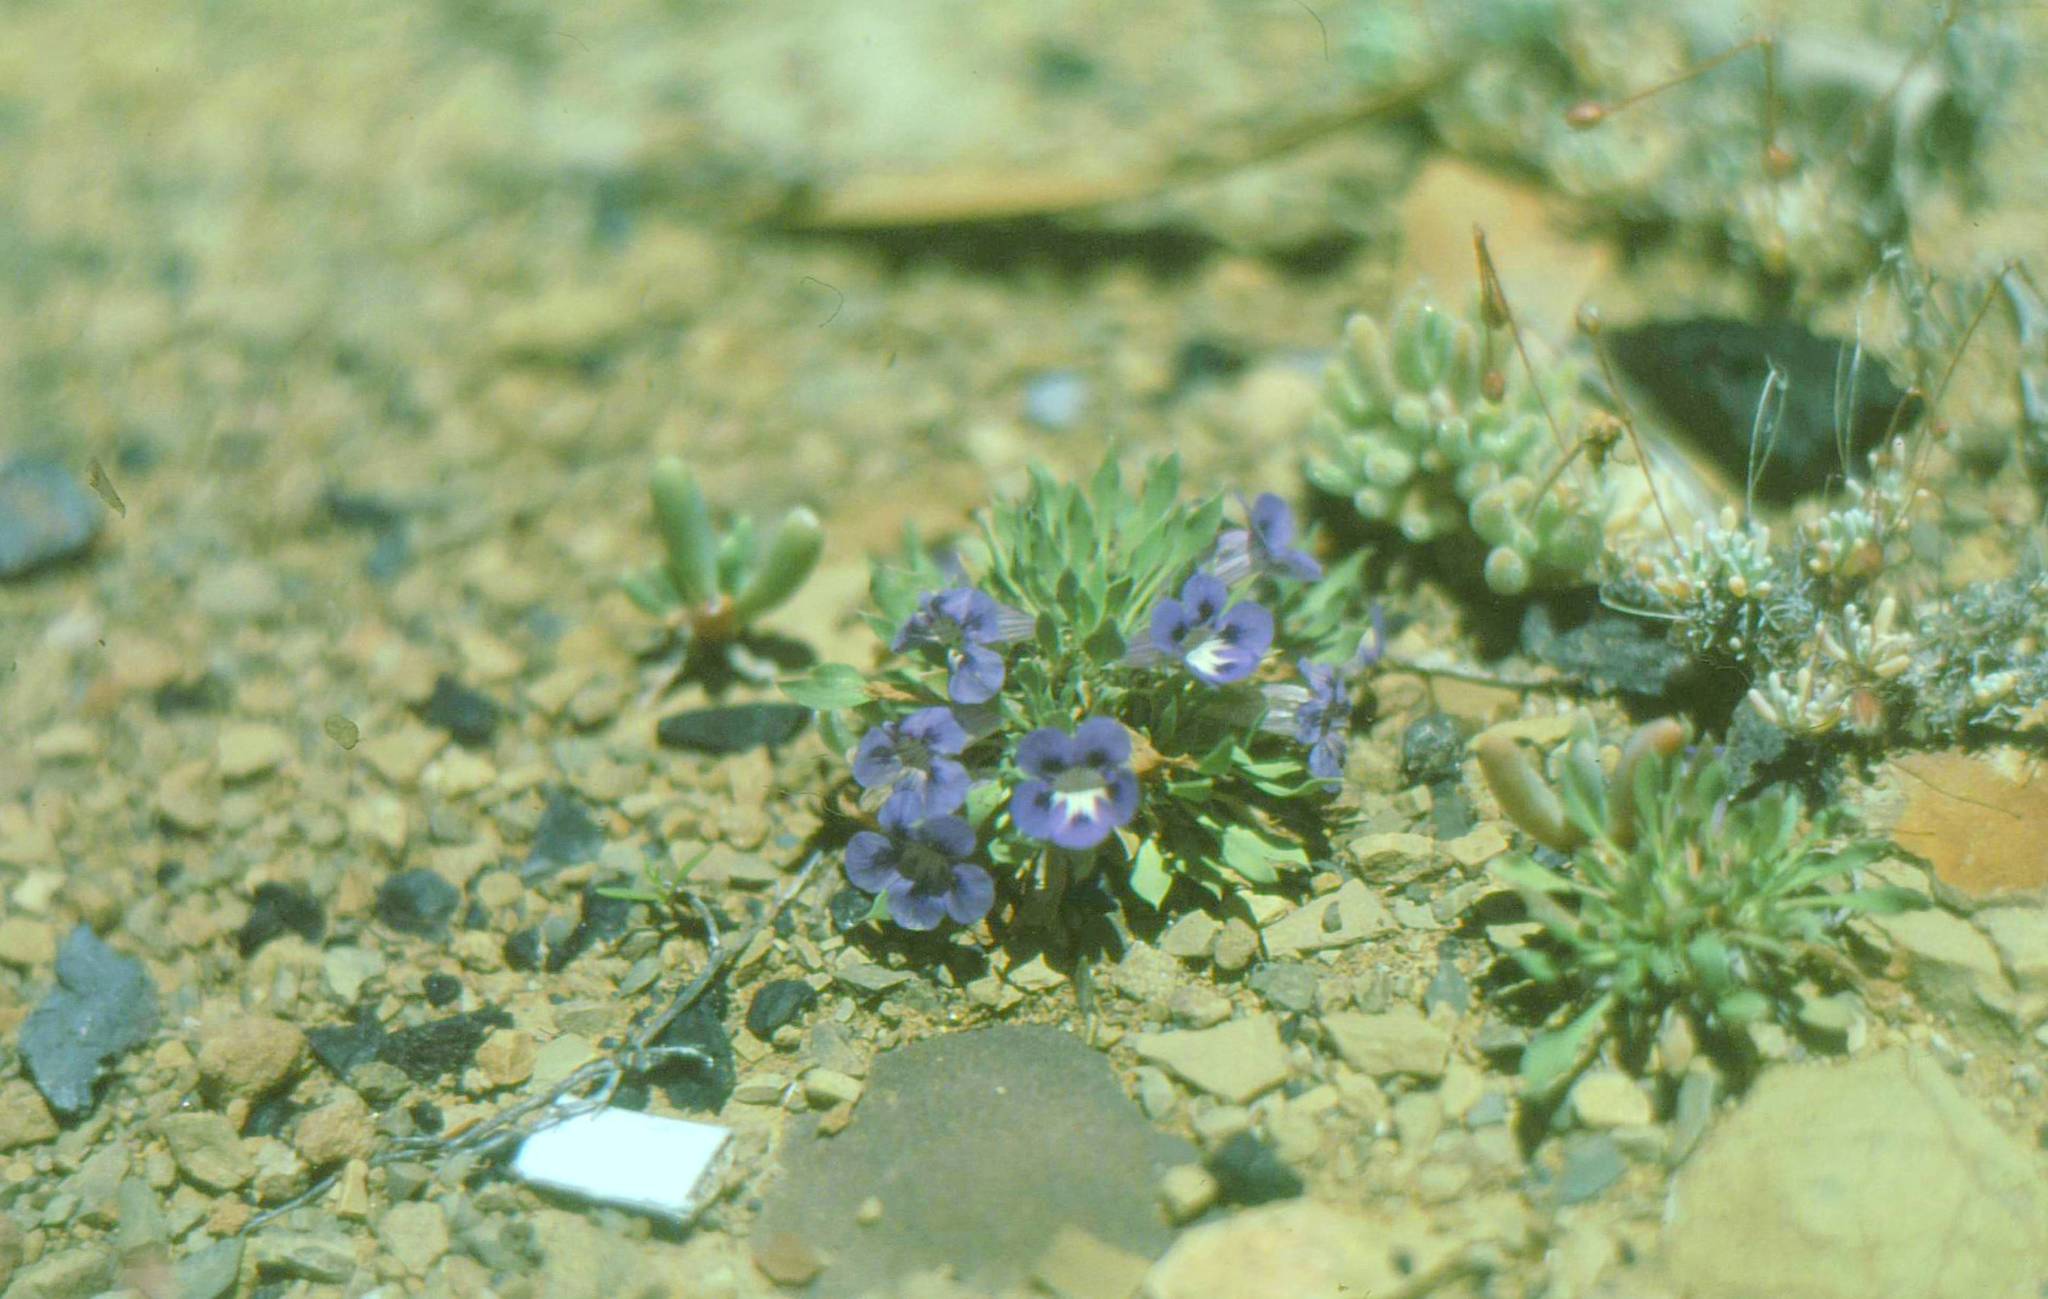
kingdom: Plantae
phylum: Tracheophyta
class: Magnoliopsida
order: Lamiales
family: Scrophulariaceae
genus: Aptosimum
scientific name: Aptosimum indivisum
